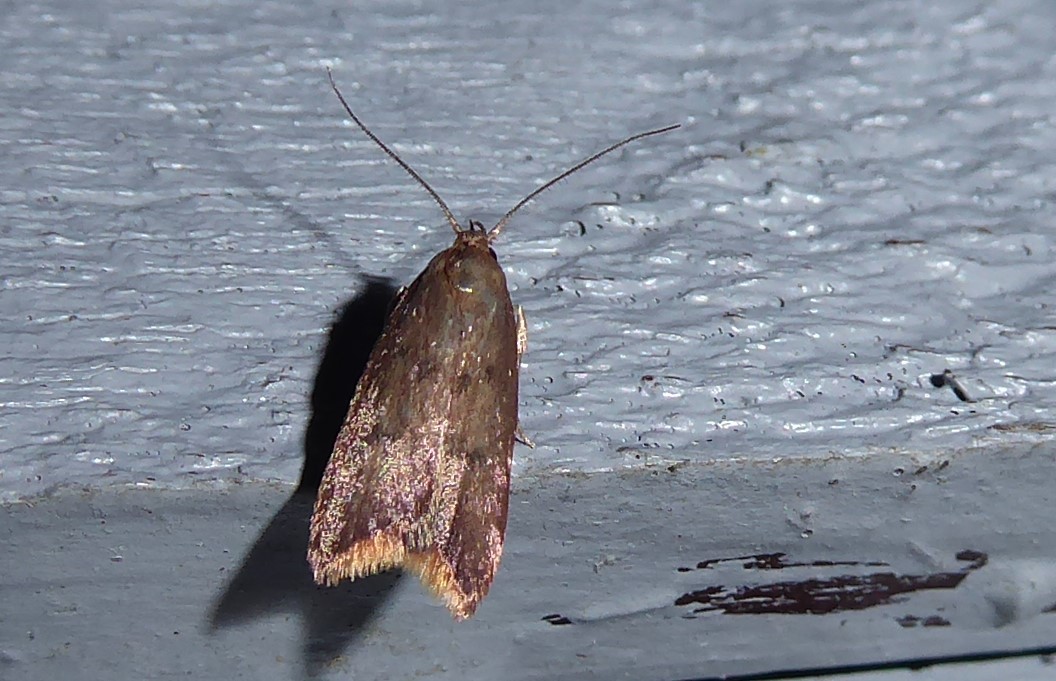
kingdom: Animalia
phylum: Arthropoda
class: Insecta
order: Lepidoptera
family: Oecophoridae
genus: Tachystola
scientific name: Tachystola acroxantha
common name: Ruddy streak
